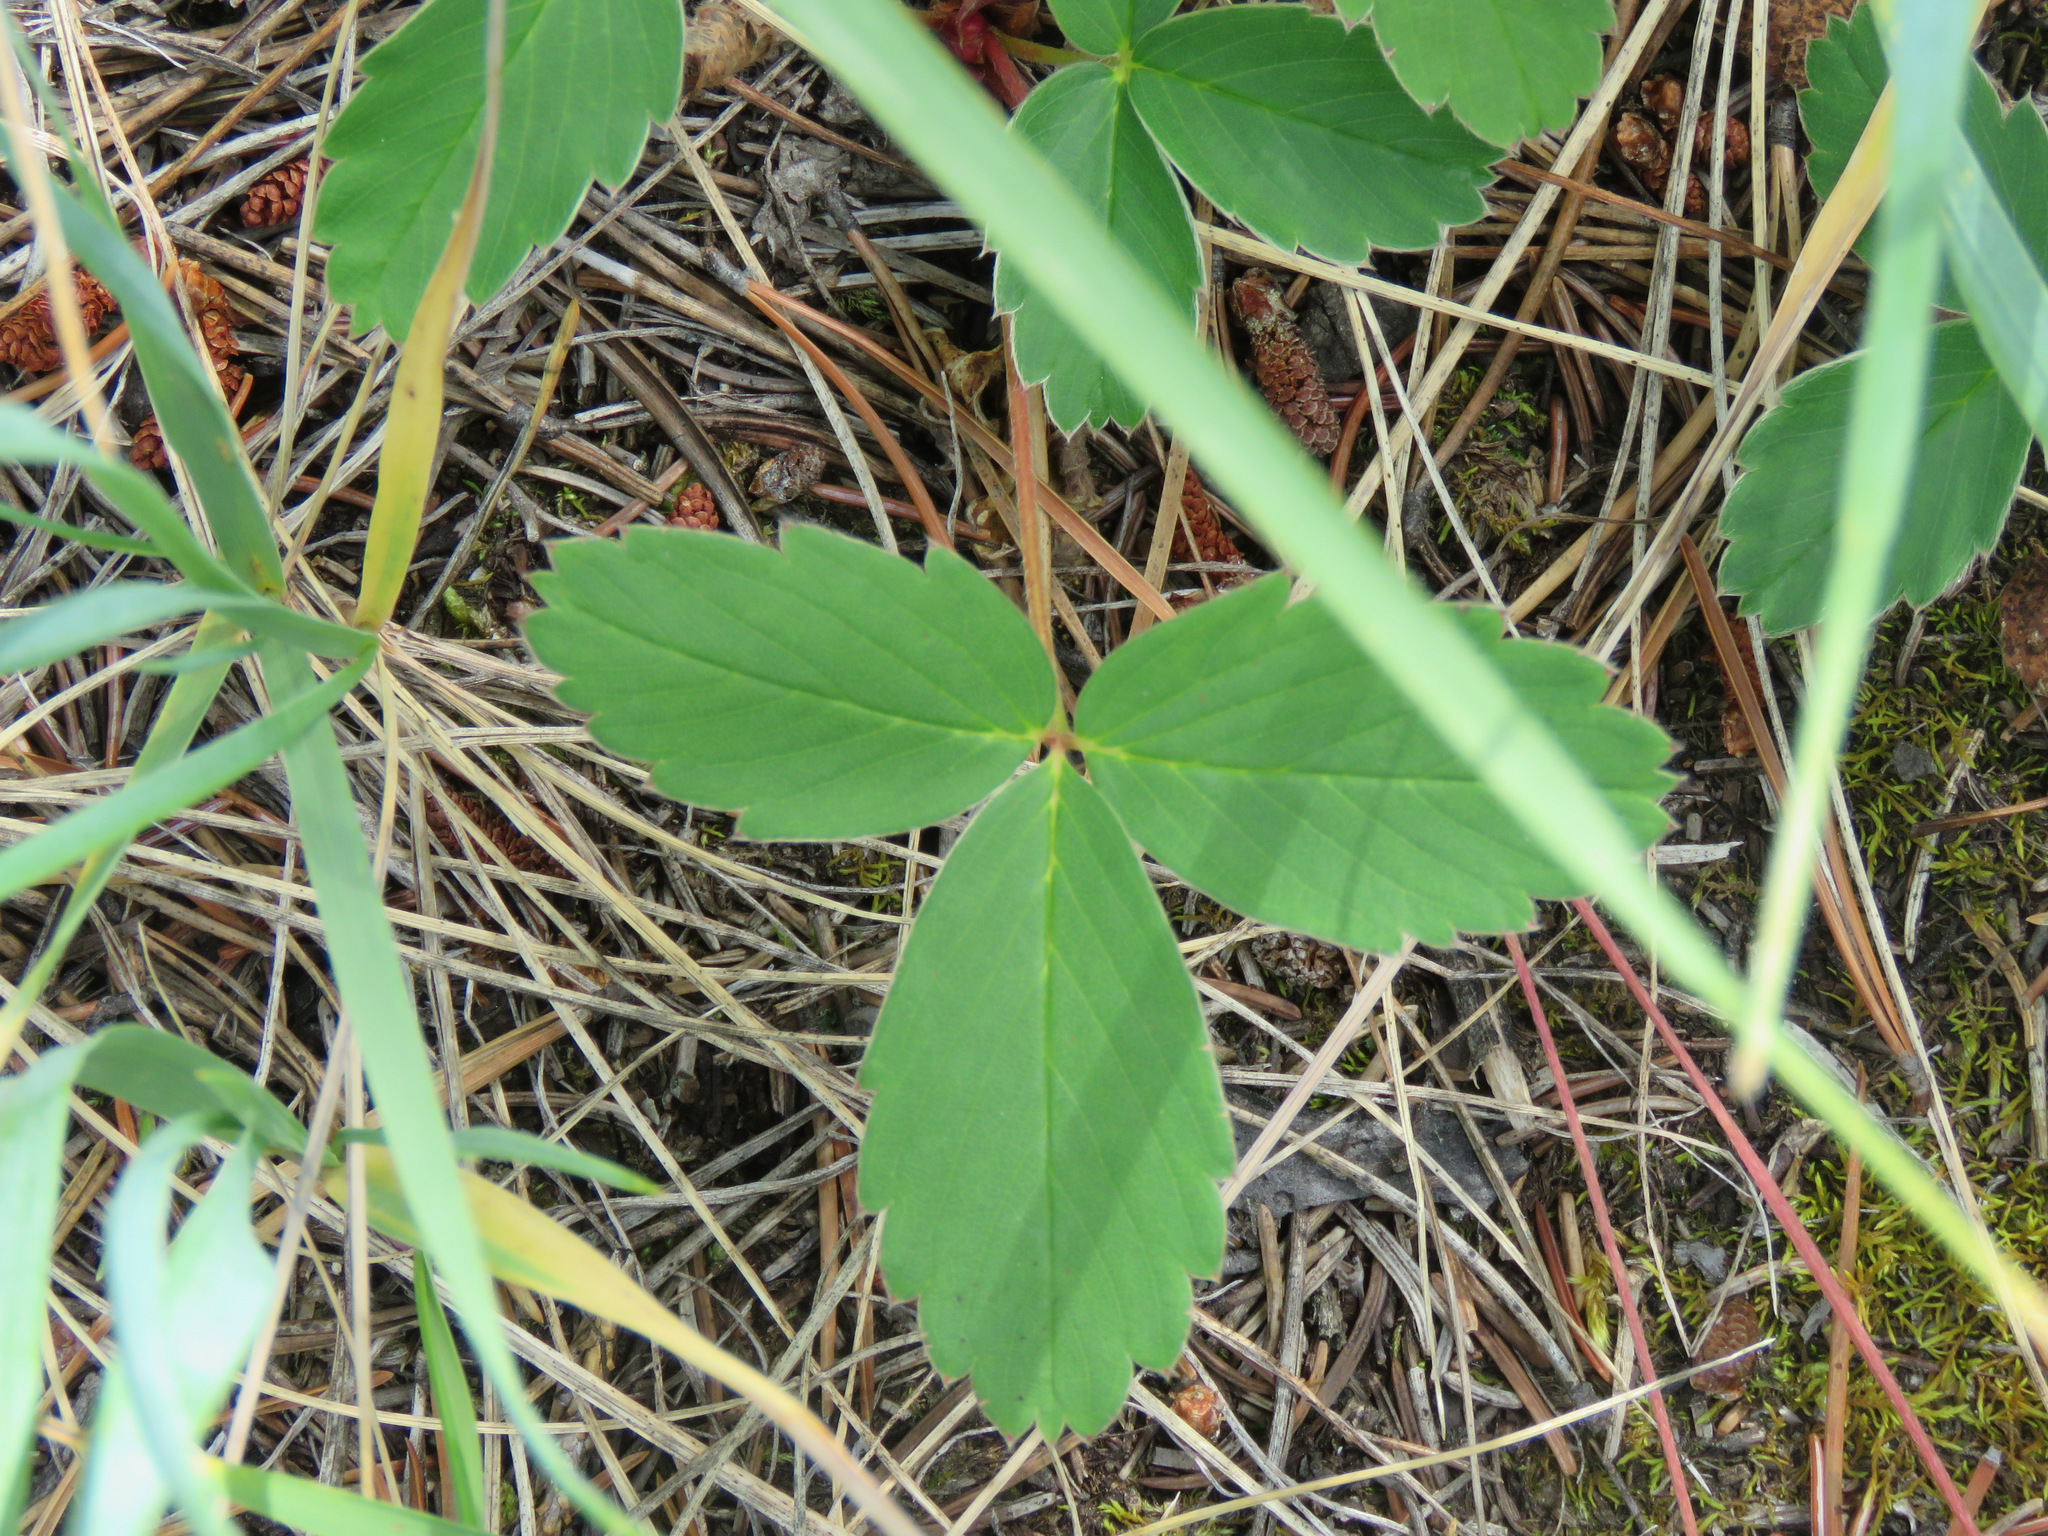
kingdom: Plantae
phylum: Tracheophyta
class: Magnoliopsida
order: Rosales
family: Rosaceae
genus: Fragaria
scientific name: Fragaria virginiana
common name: Thickleaved wild strawberry
